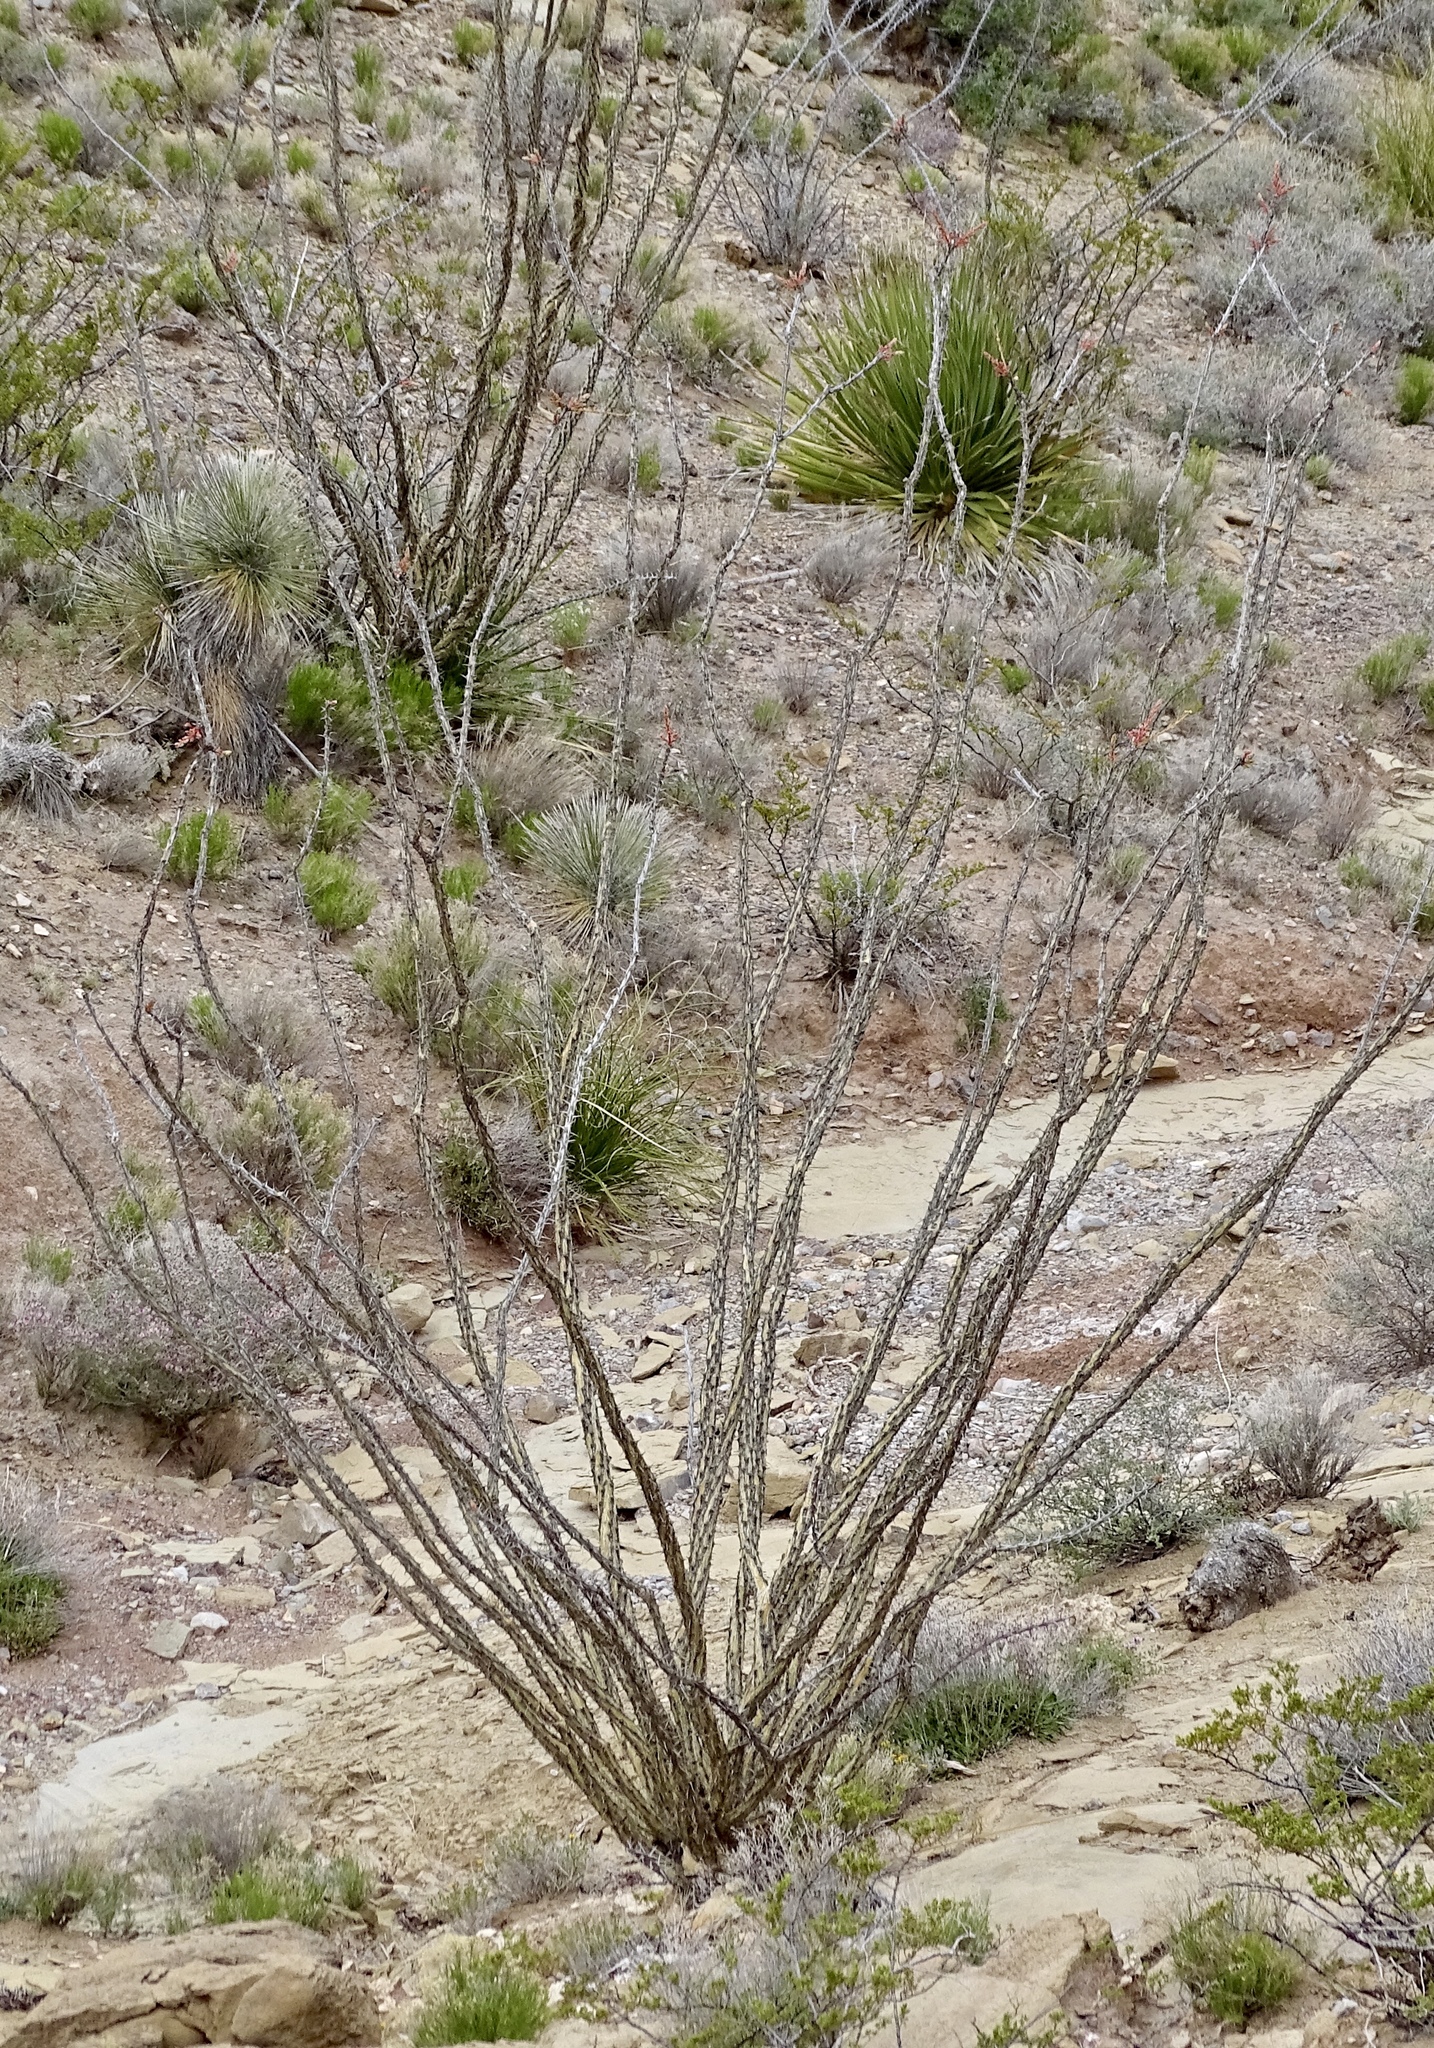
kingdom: Plantae
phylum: Tracheophyta
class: Magnoliopsida
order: Ericales
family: Fouquieriaceae
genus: Fouquieria
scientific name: Fouquieria splendens
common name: Vine-cactus
